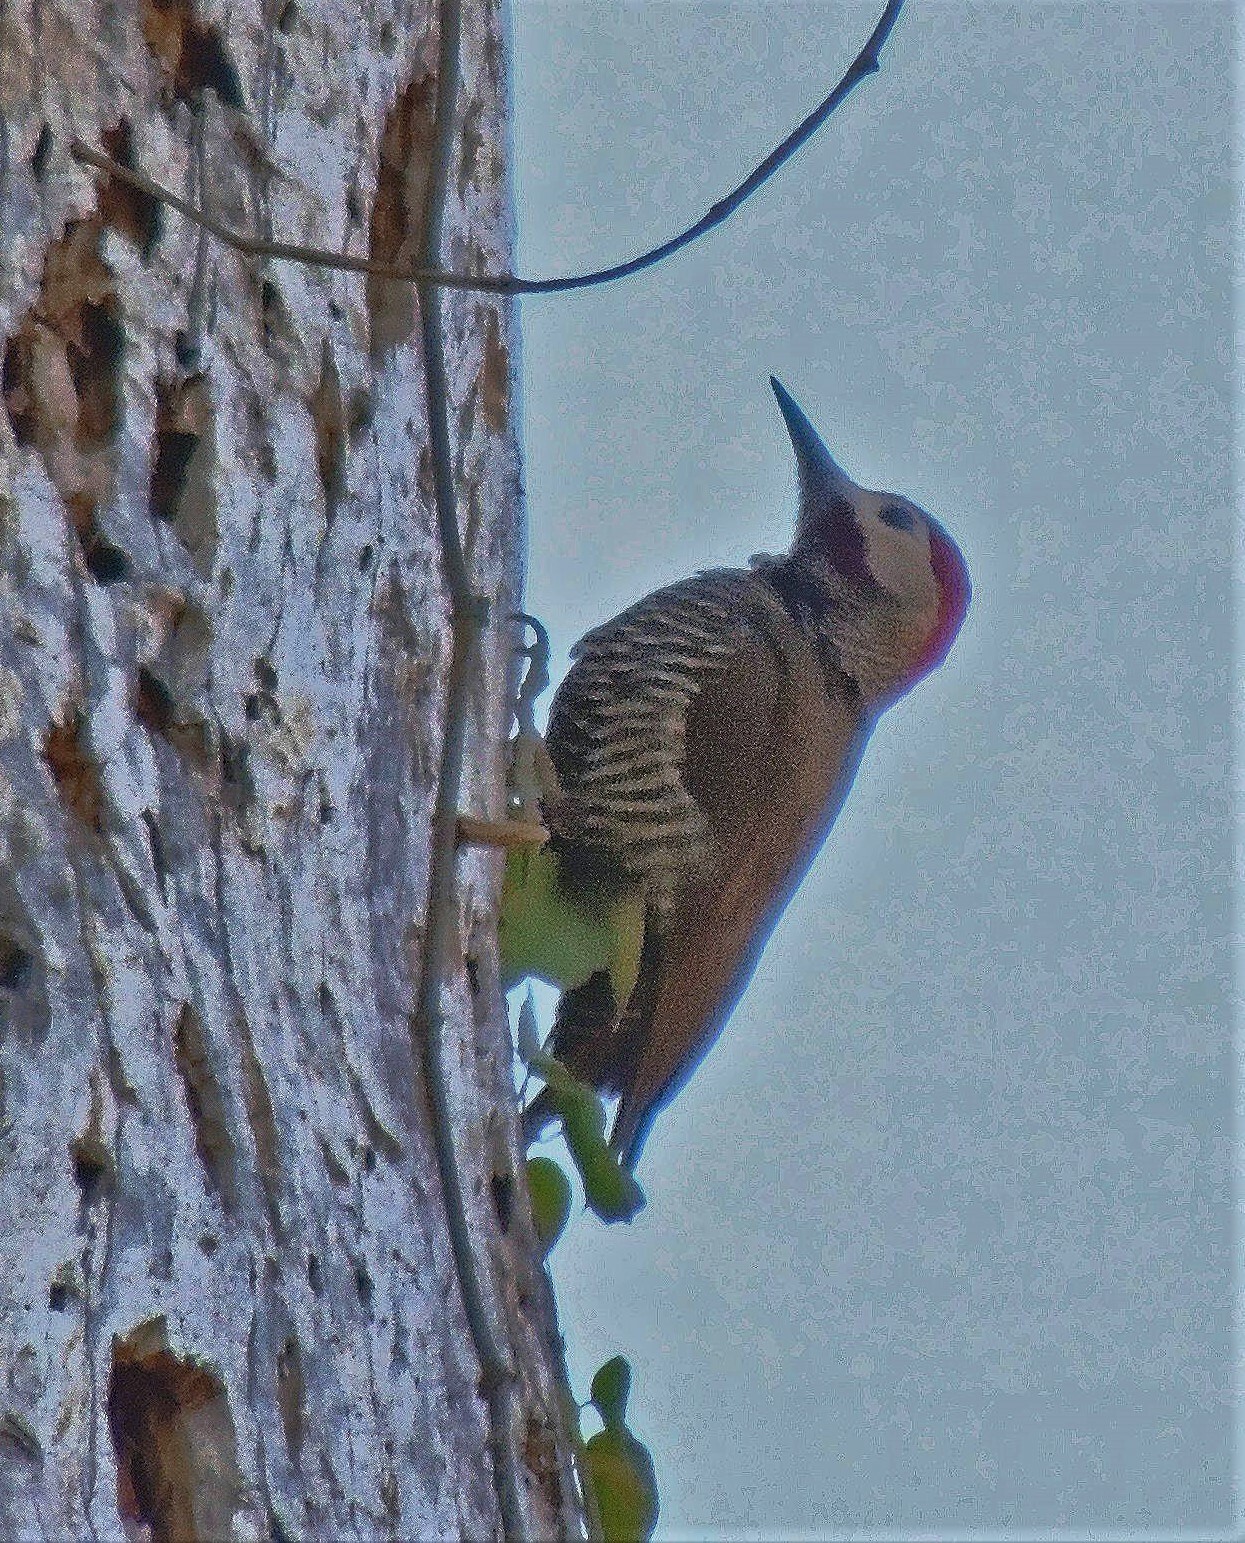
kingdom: Animalia
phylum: Chordata
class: Aves
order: Piciformes
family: Picidae
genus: Colaptes
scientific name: Colaptes rubiginosus
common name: Golden-olive woodpecker
